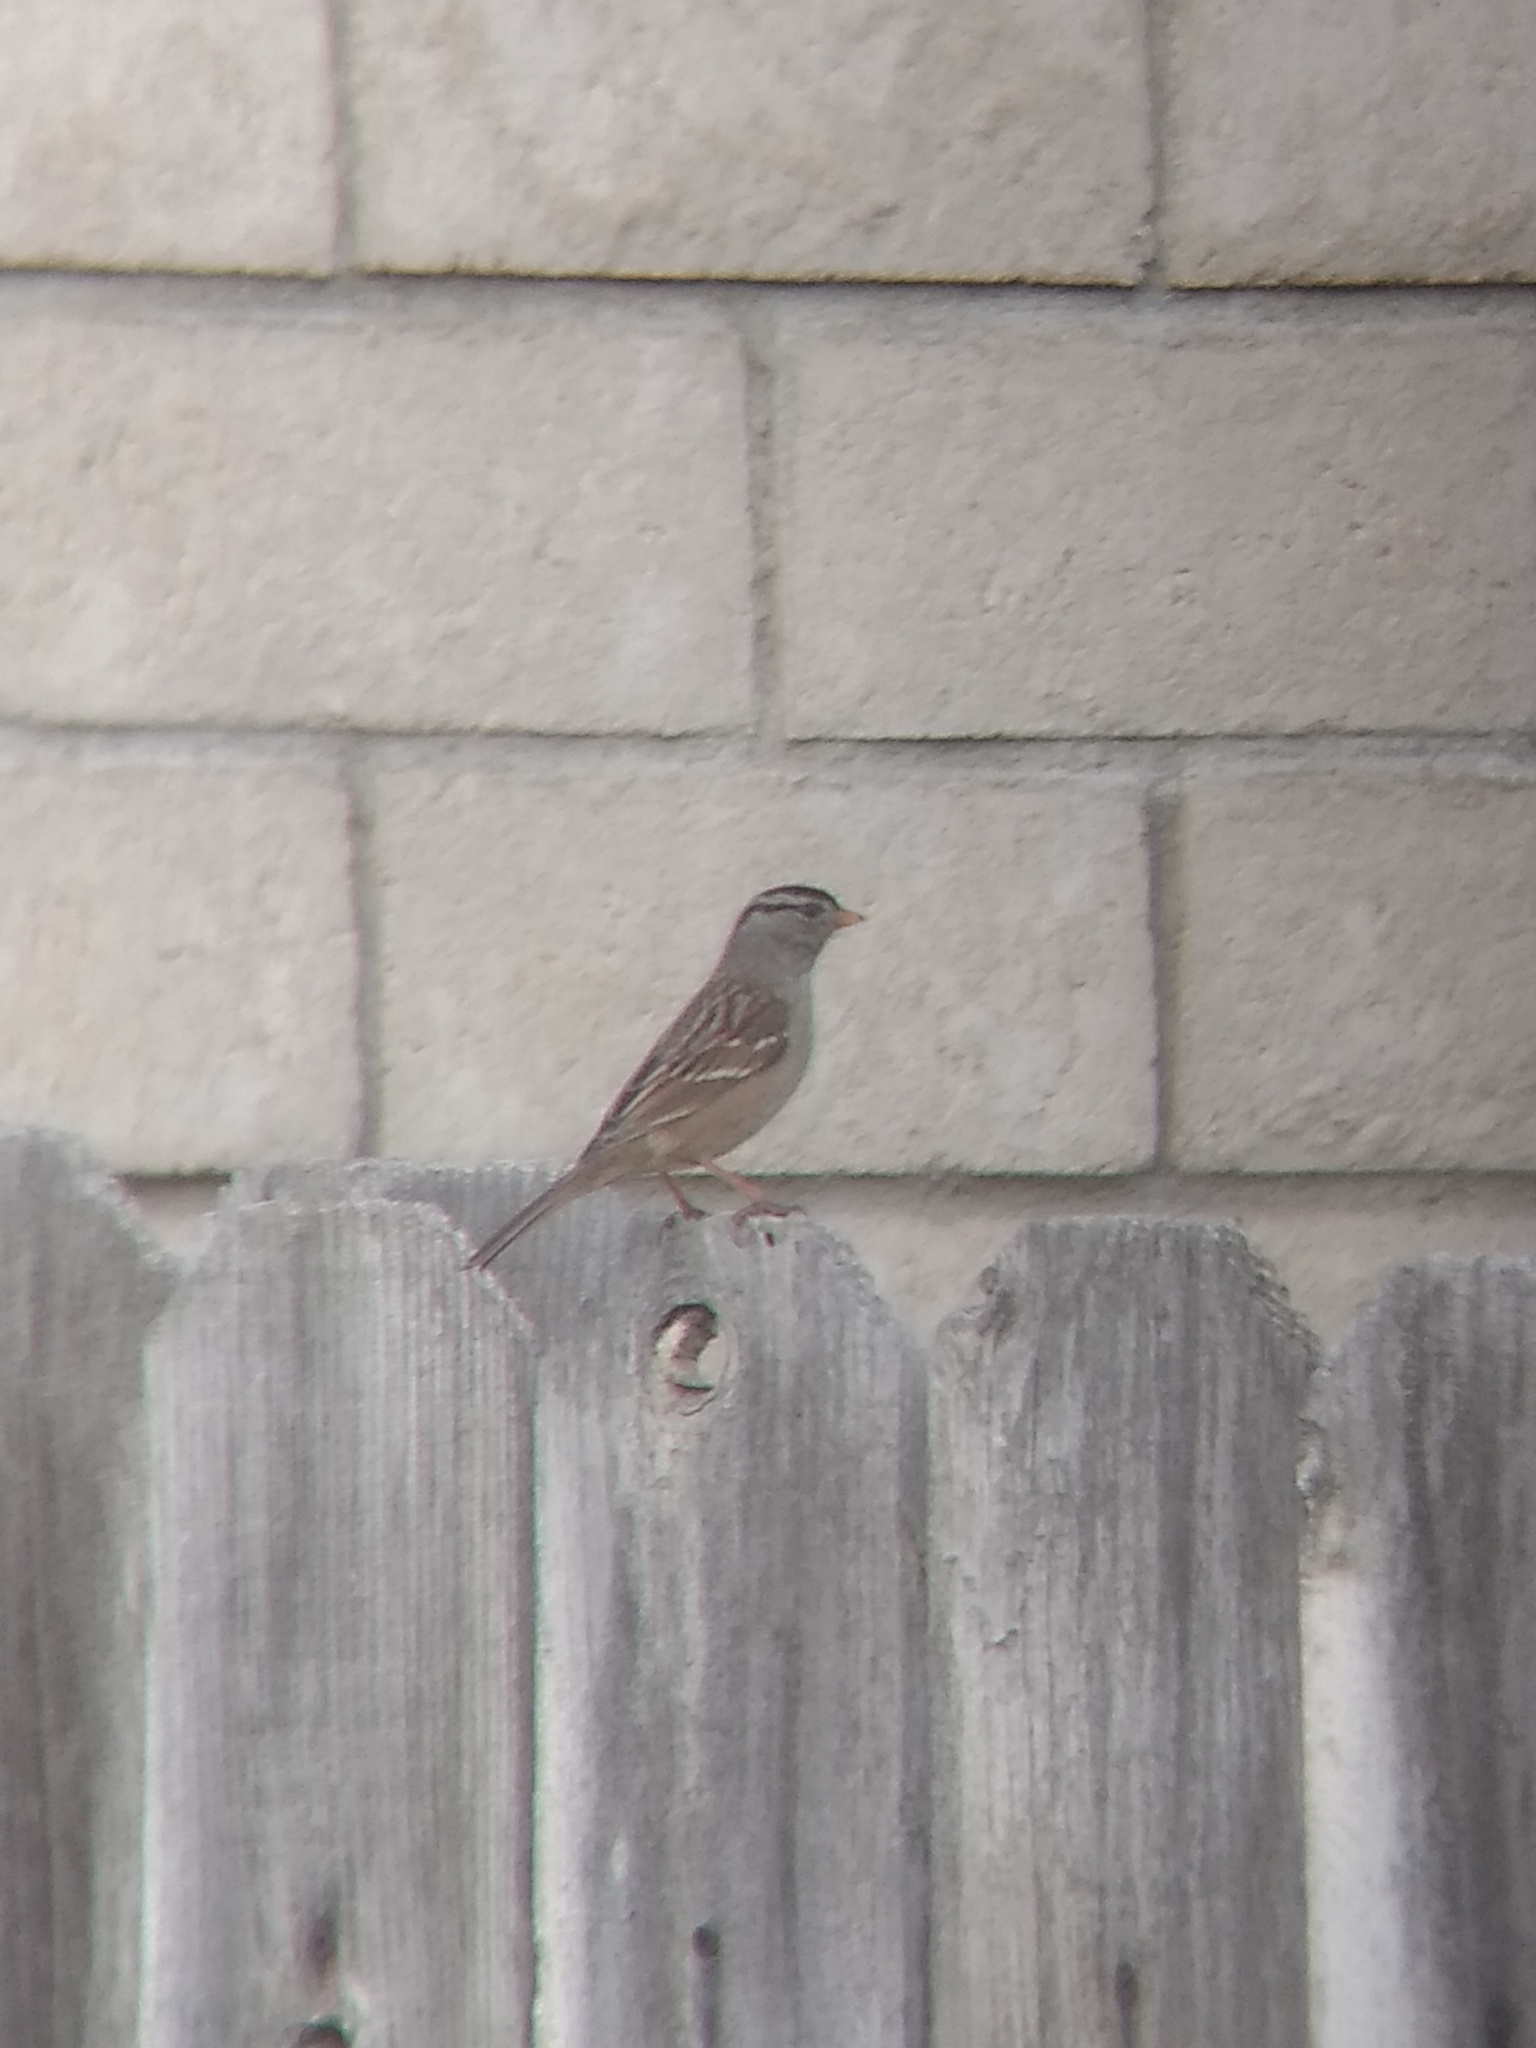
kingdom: Animalia
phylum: Chordata
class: Aves
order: Passeriformes
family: Passerellidae
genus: Zonotrichia
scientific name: Zonotrichia leucophrys
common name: White-crowned sparrow
